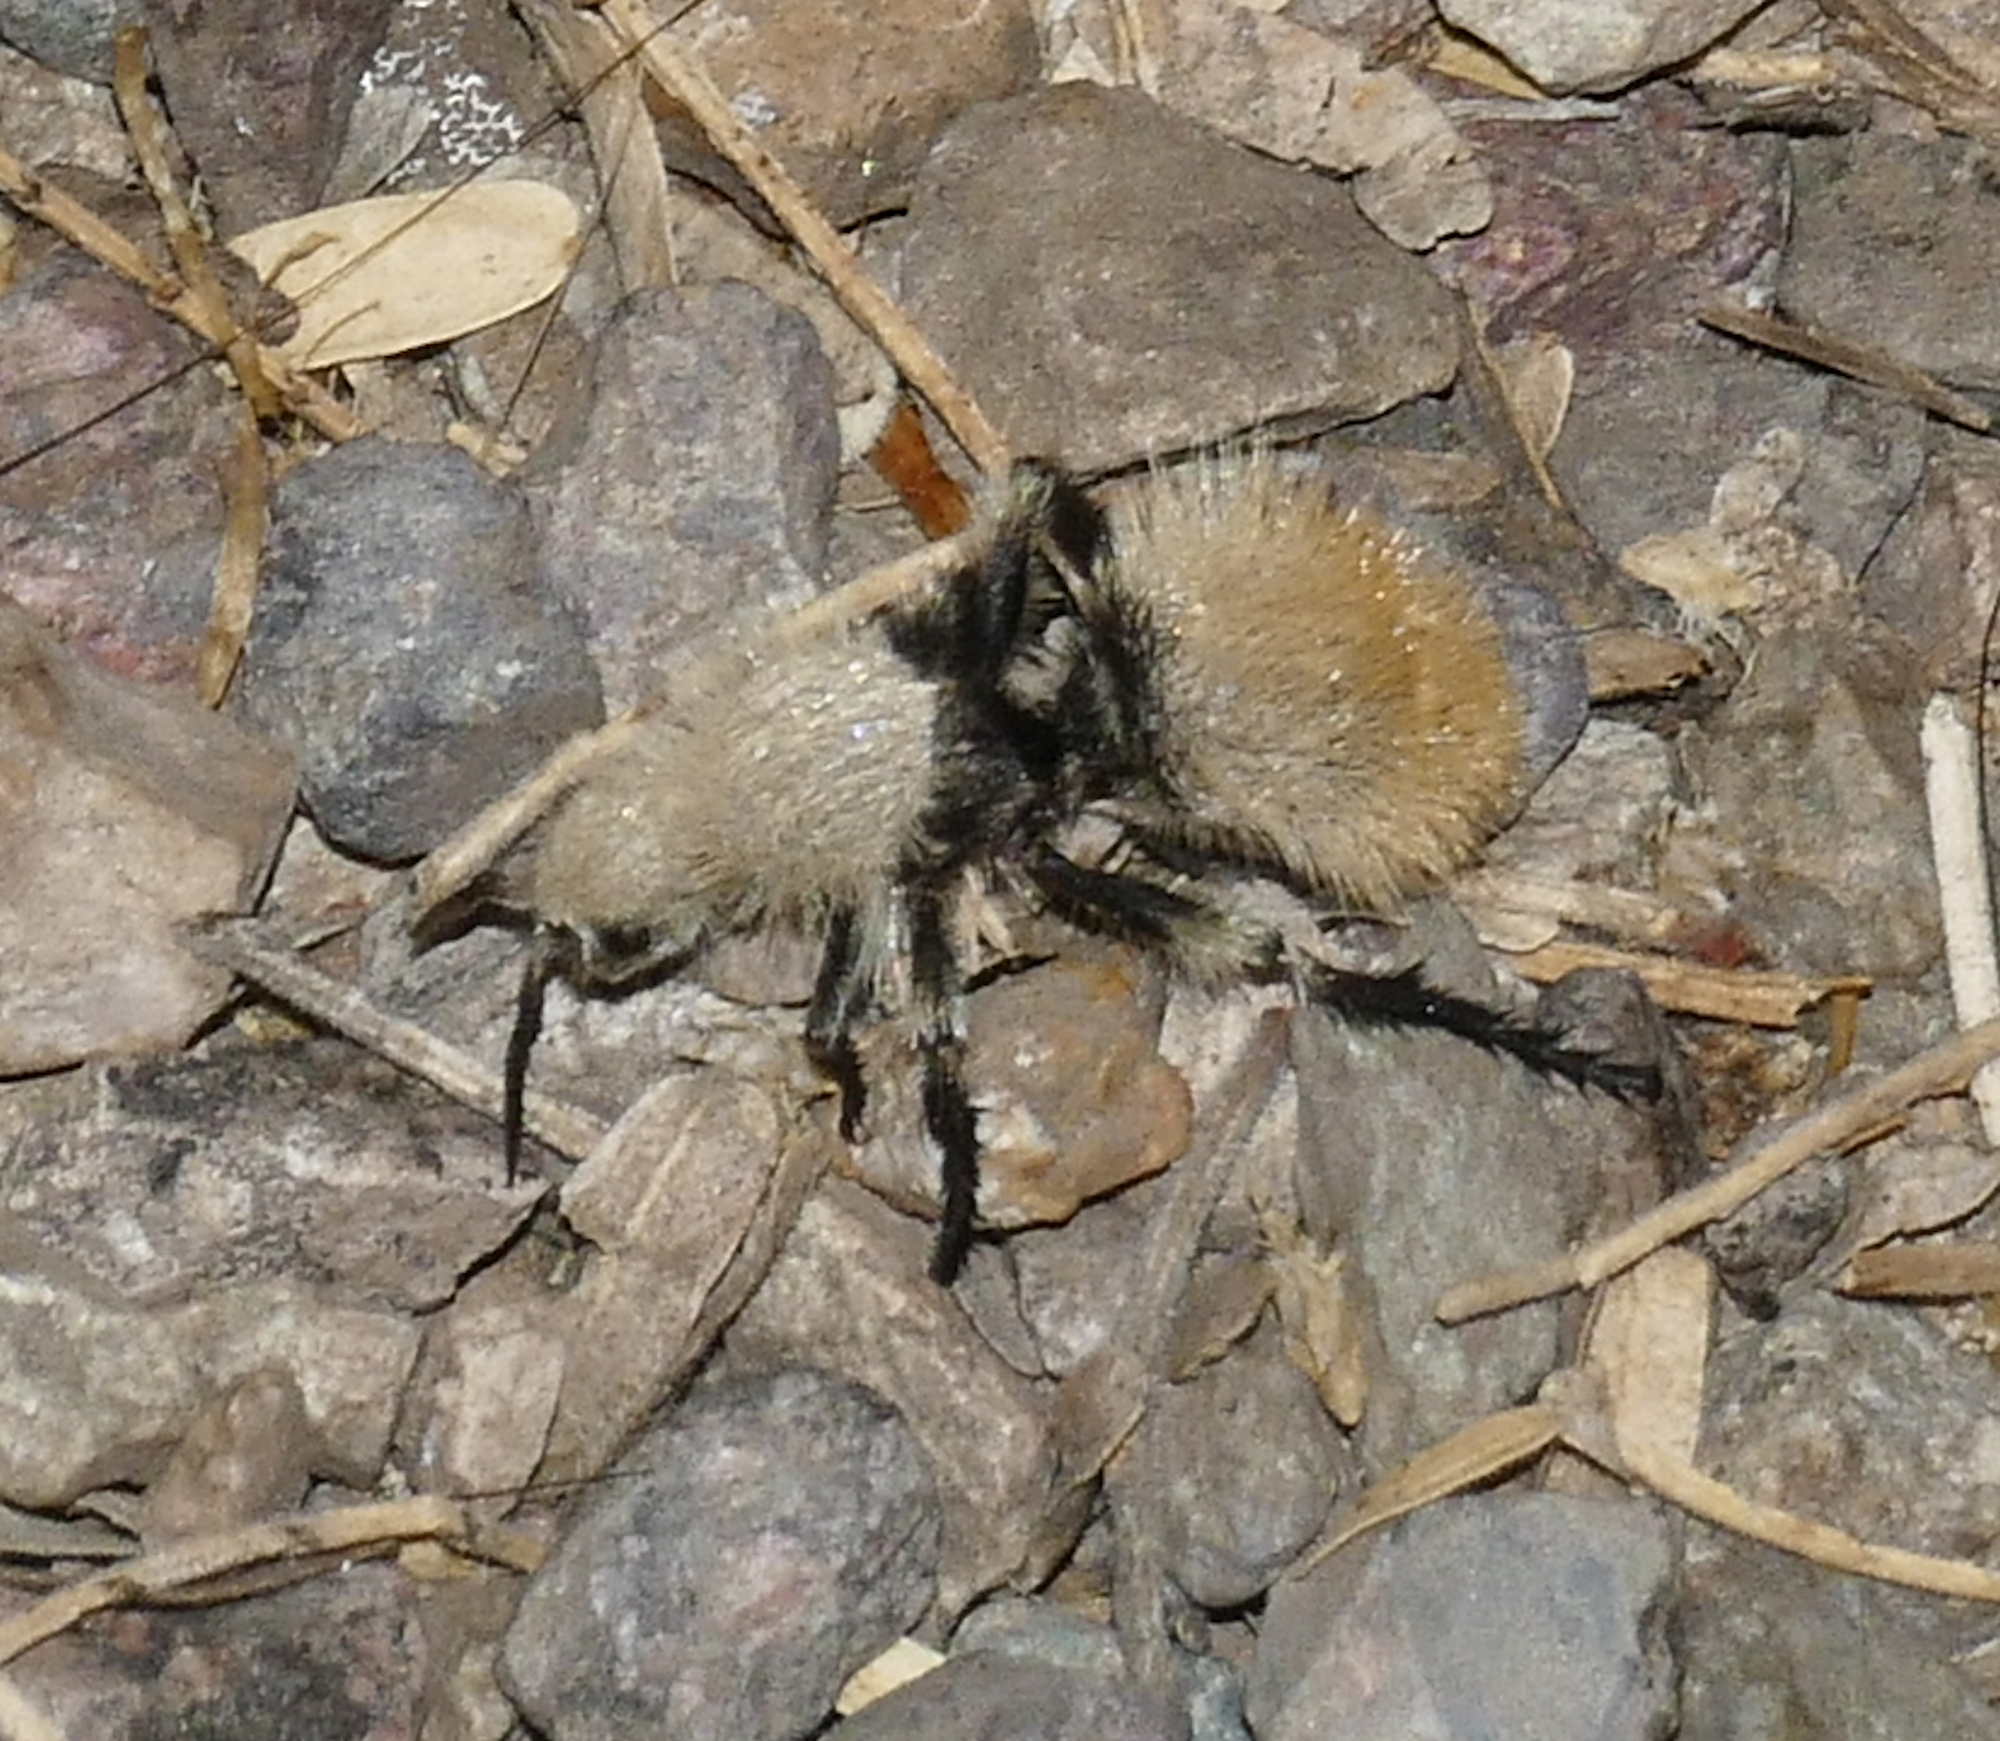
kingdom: Animalia
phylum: Arthropoda
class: Insecta
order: Hymenoptera
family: Mutillidae
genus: Dasymutilla
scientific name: Dasymutilla
